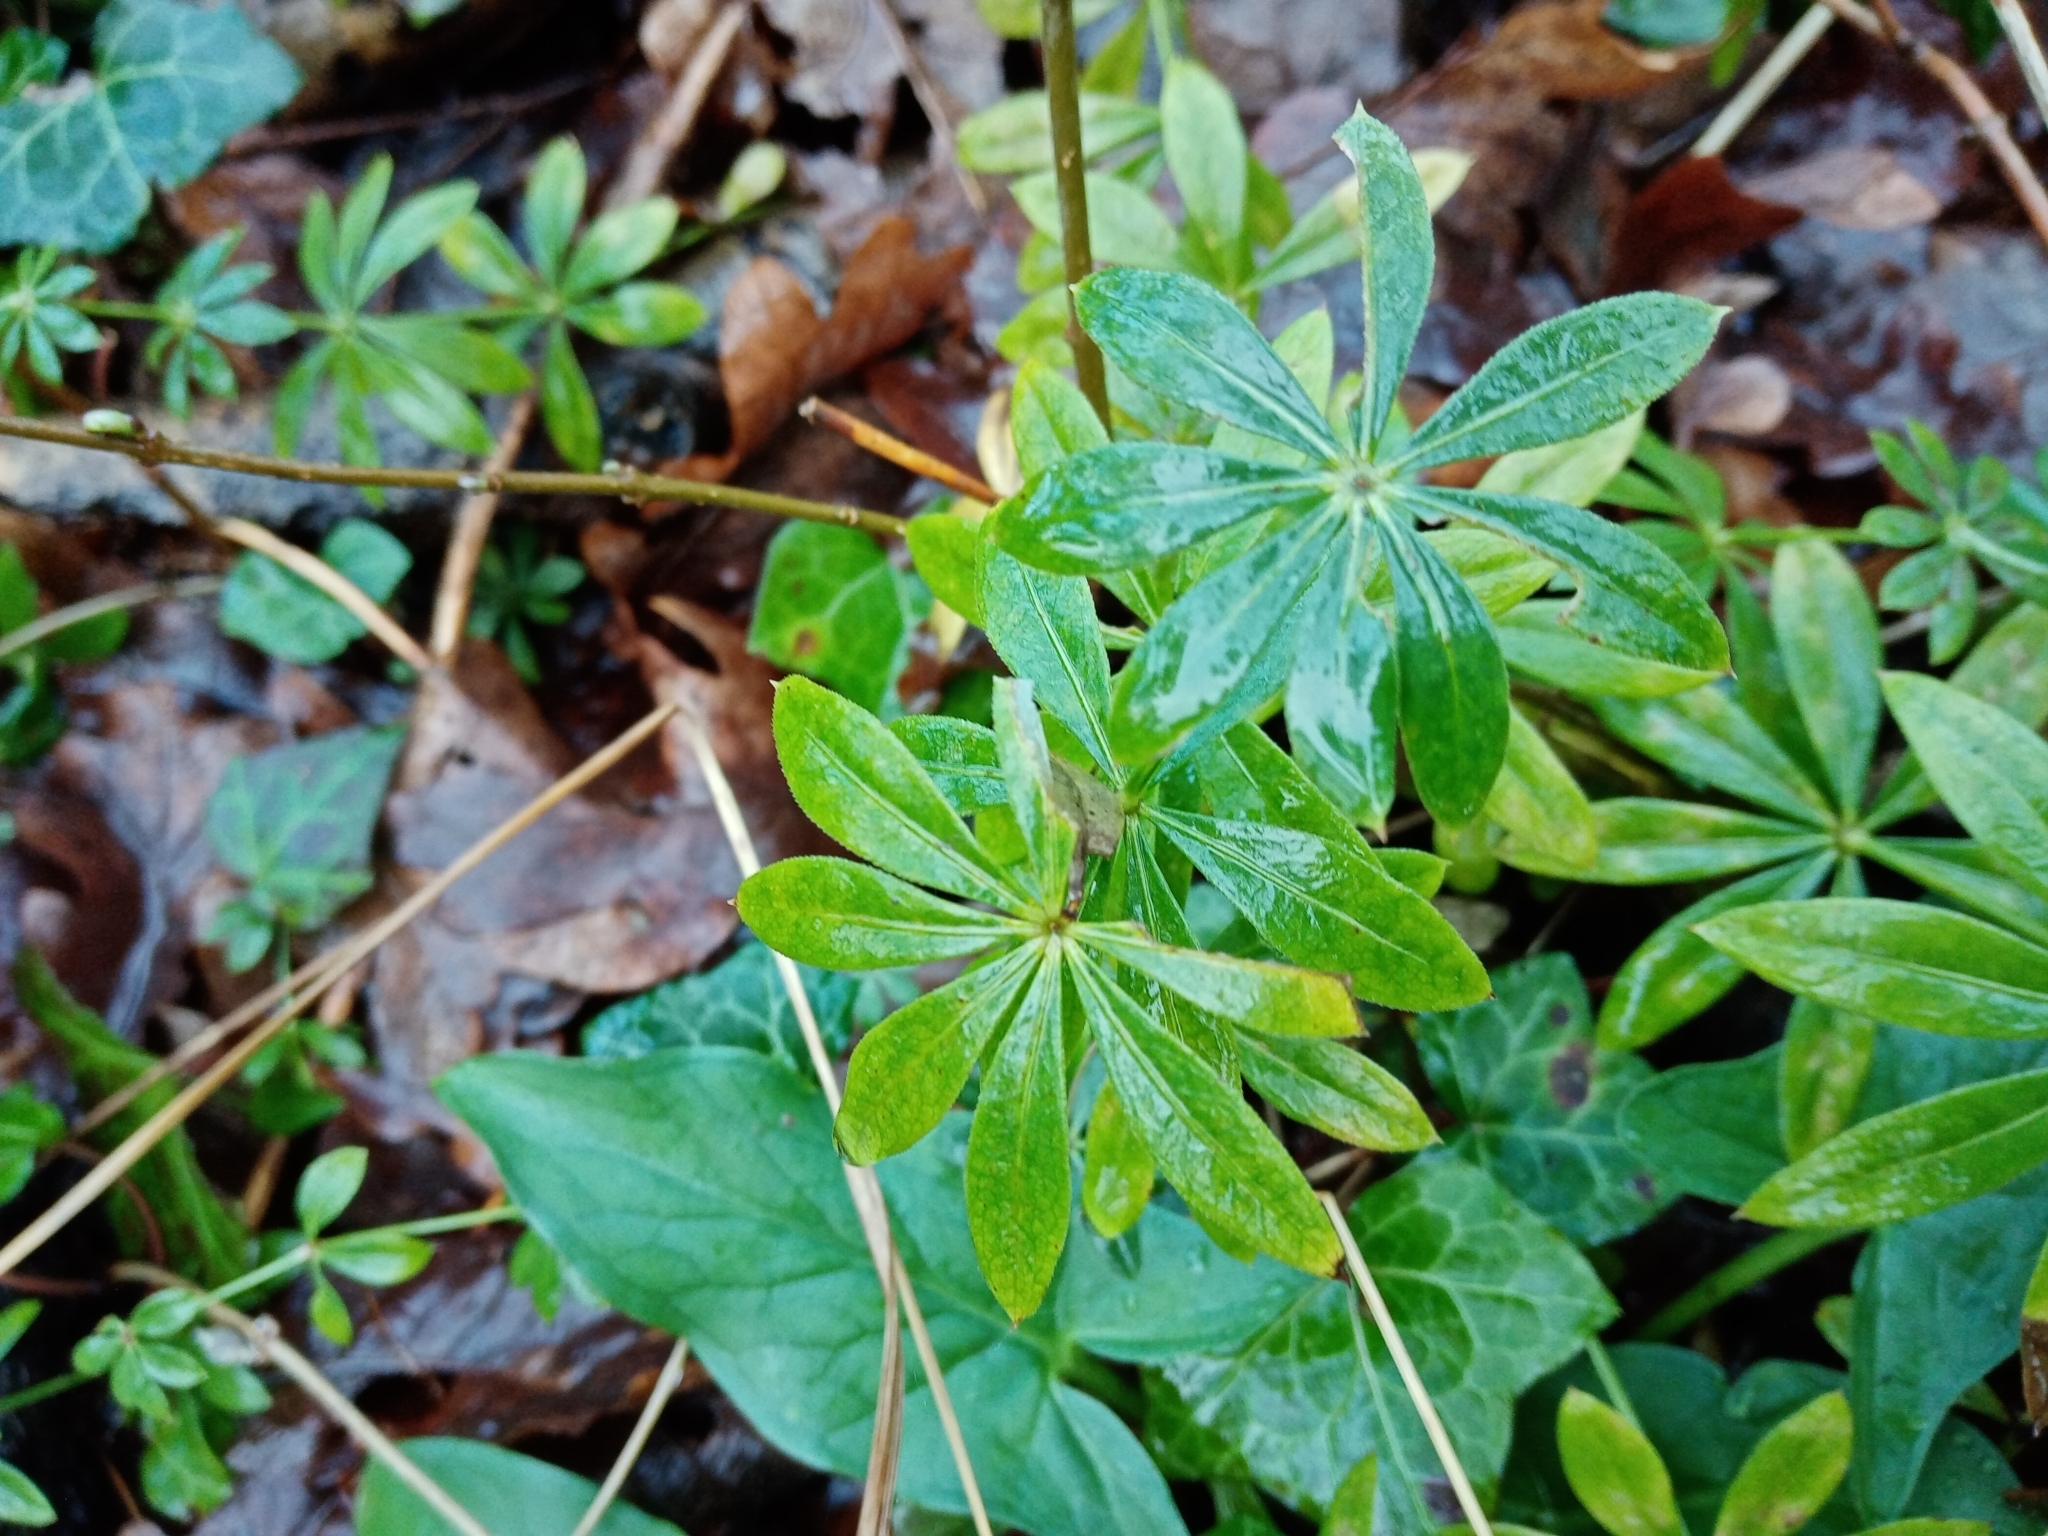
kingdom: Plantae
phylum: Tracheophyta
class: Magnoliopsida
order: Gentianales
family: Rubiaceae
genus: Galium
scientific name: Galium odoratum
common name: Sweet woodruff
